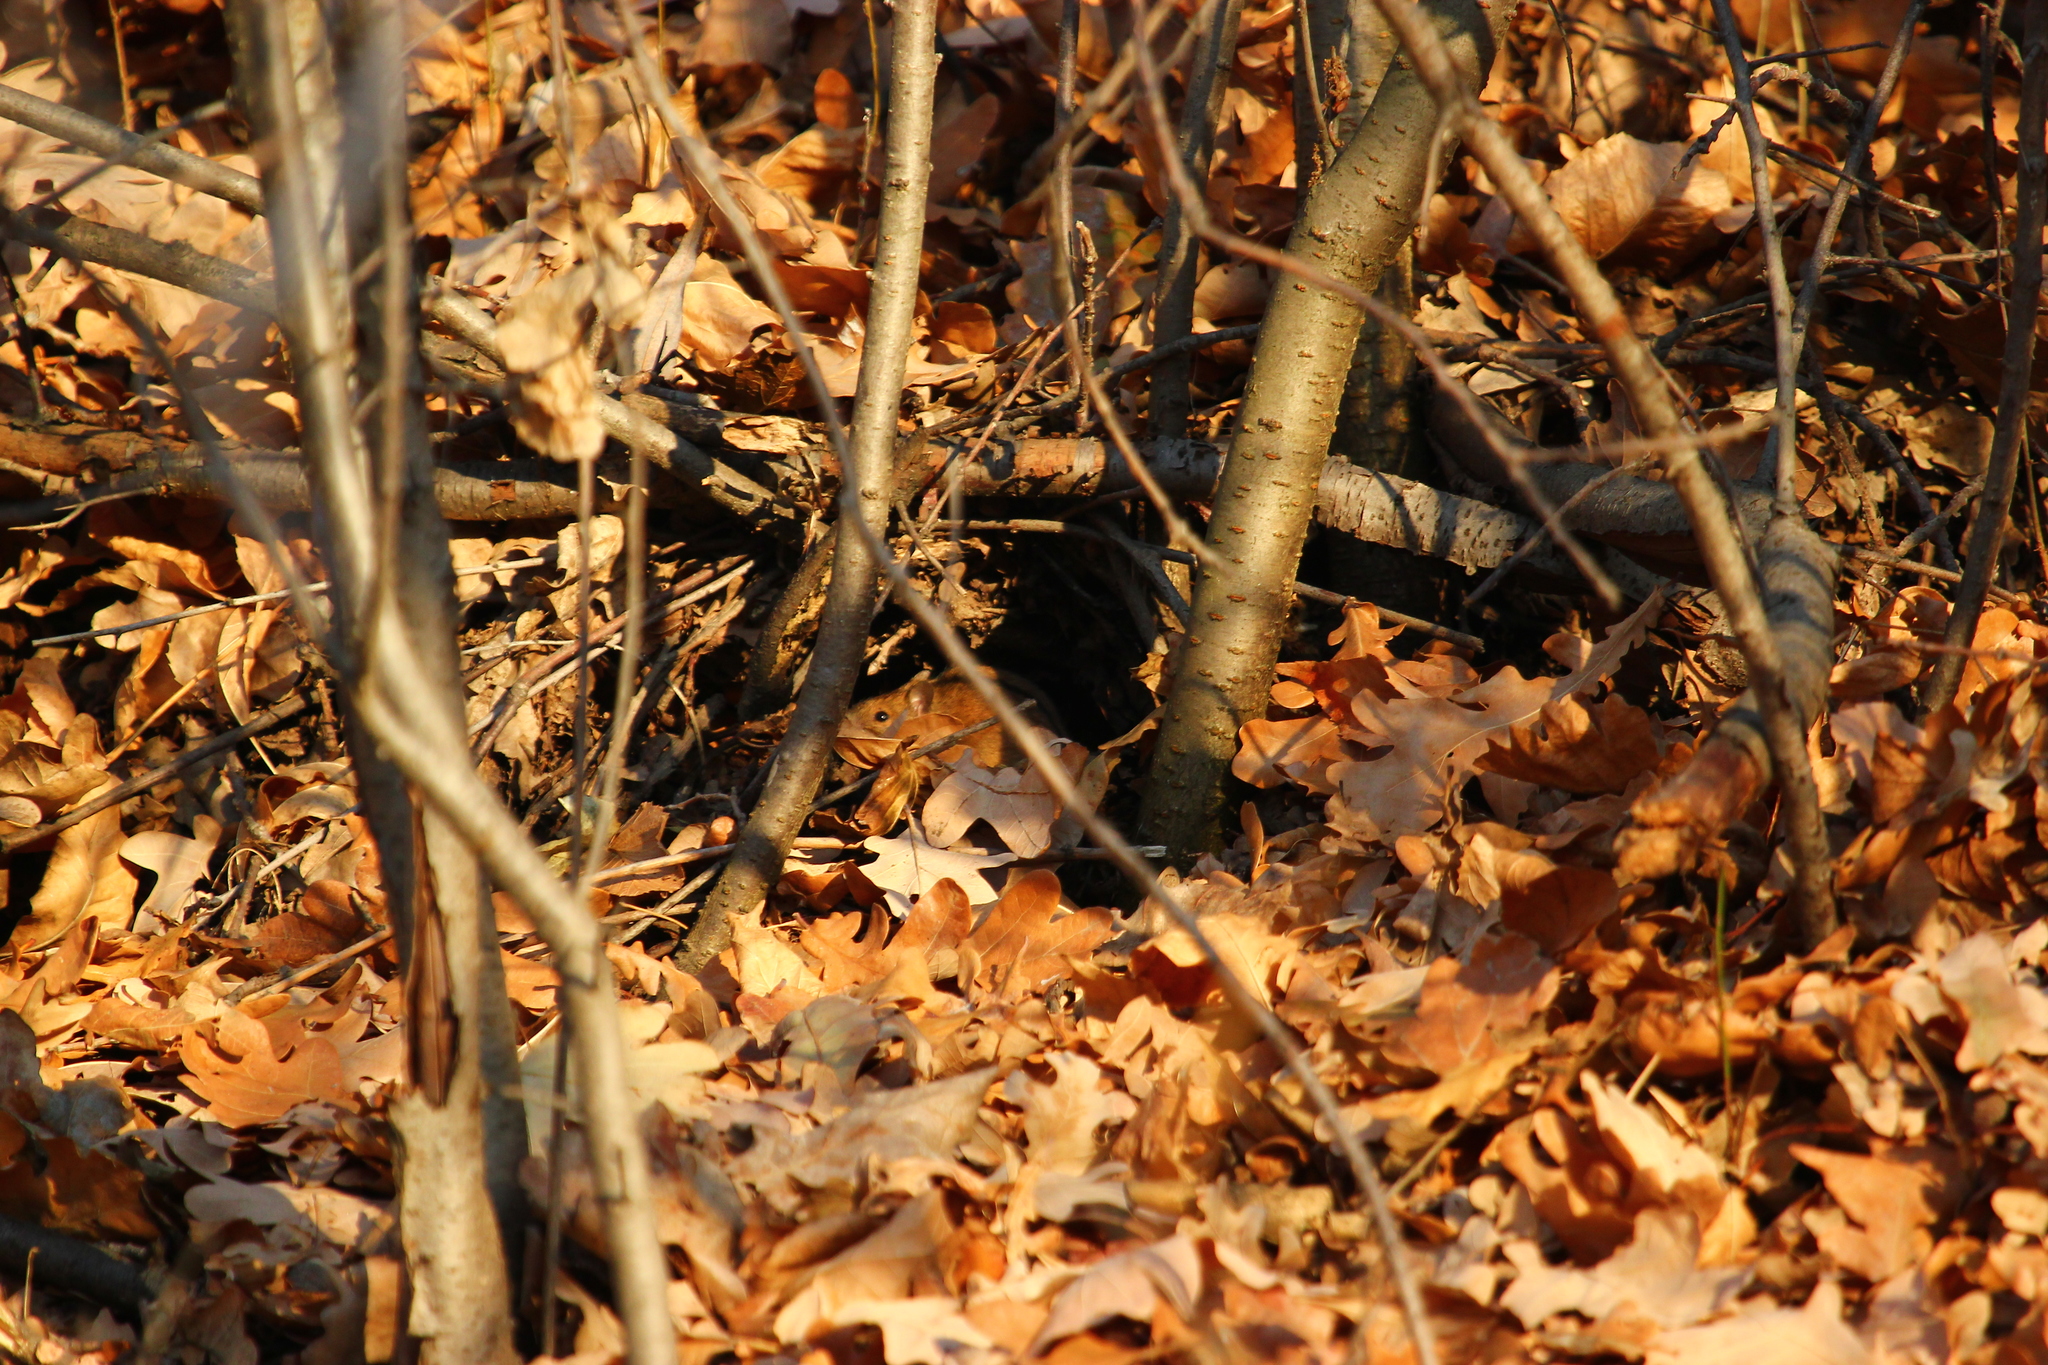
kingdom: Animalia
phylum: Chordata
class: Mammalia
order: Rodentia
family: Muridae
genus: Apodemus
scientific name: Apodemus agrarius
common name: Striped field mouse
